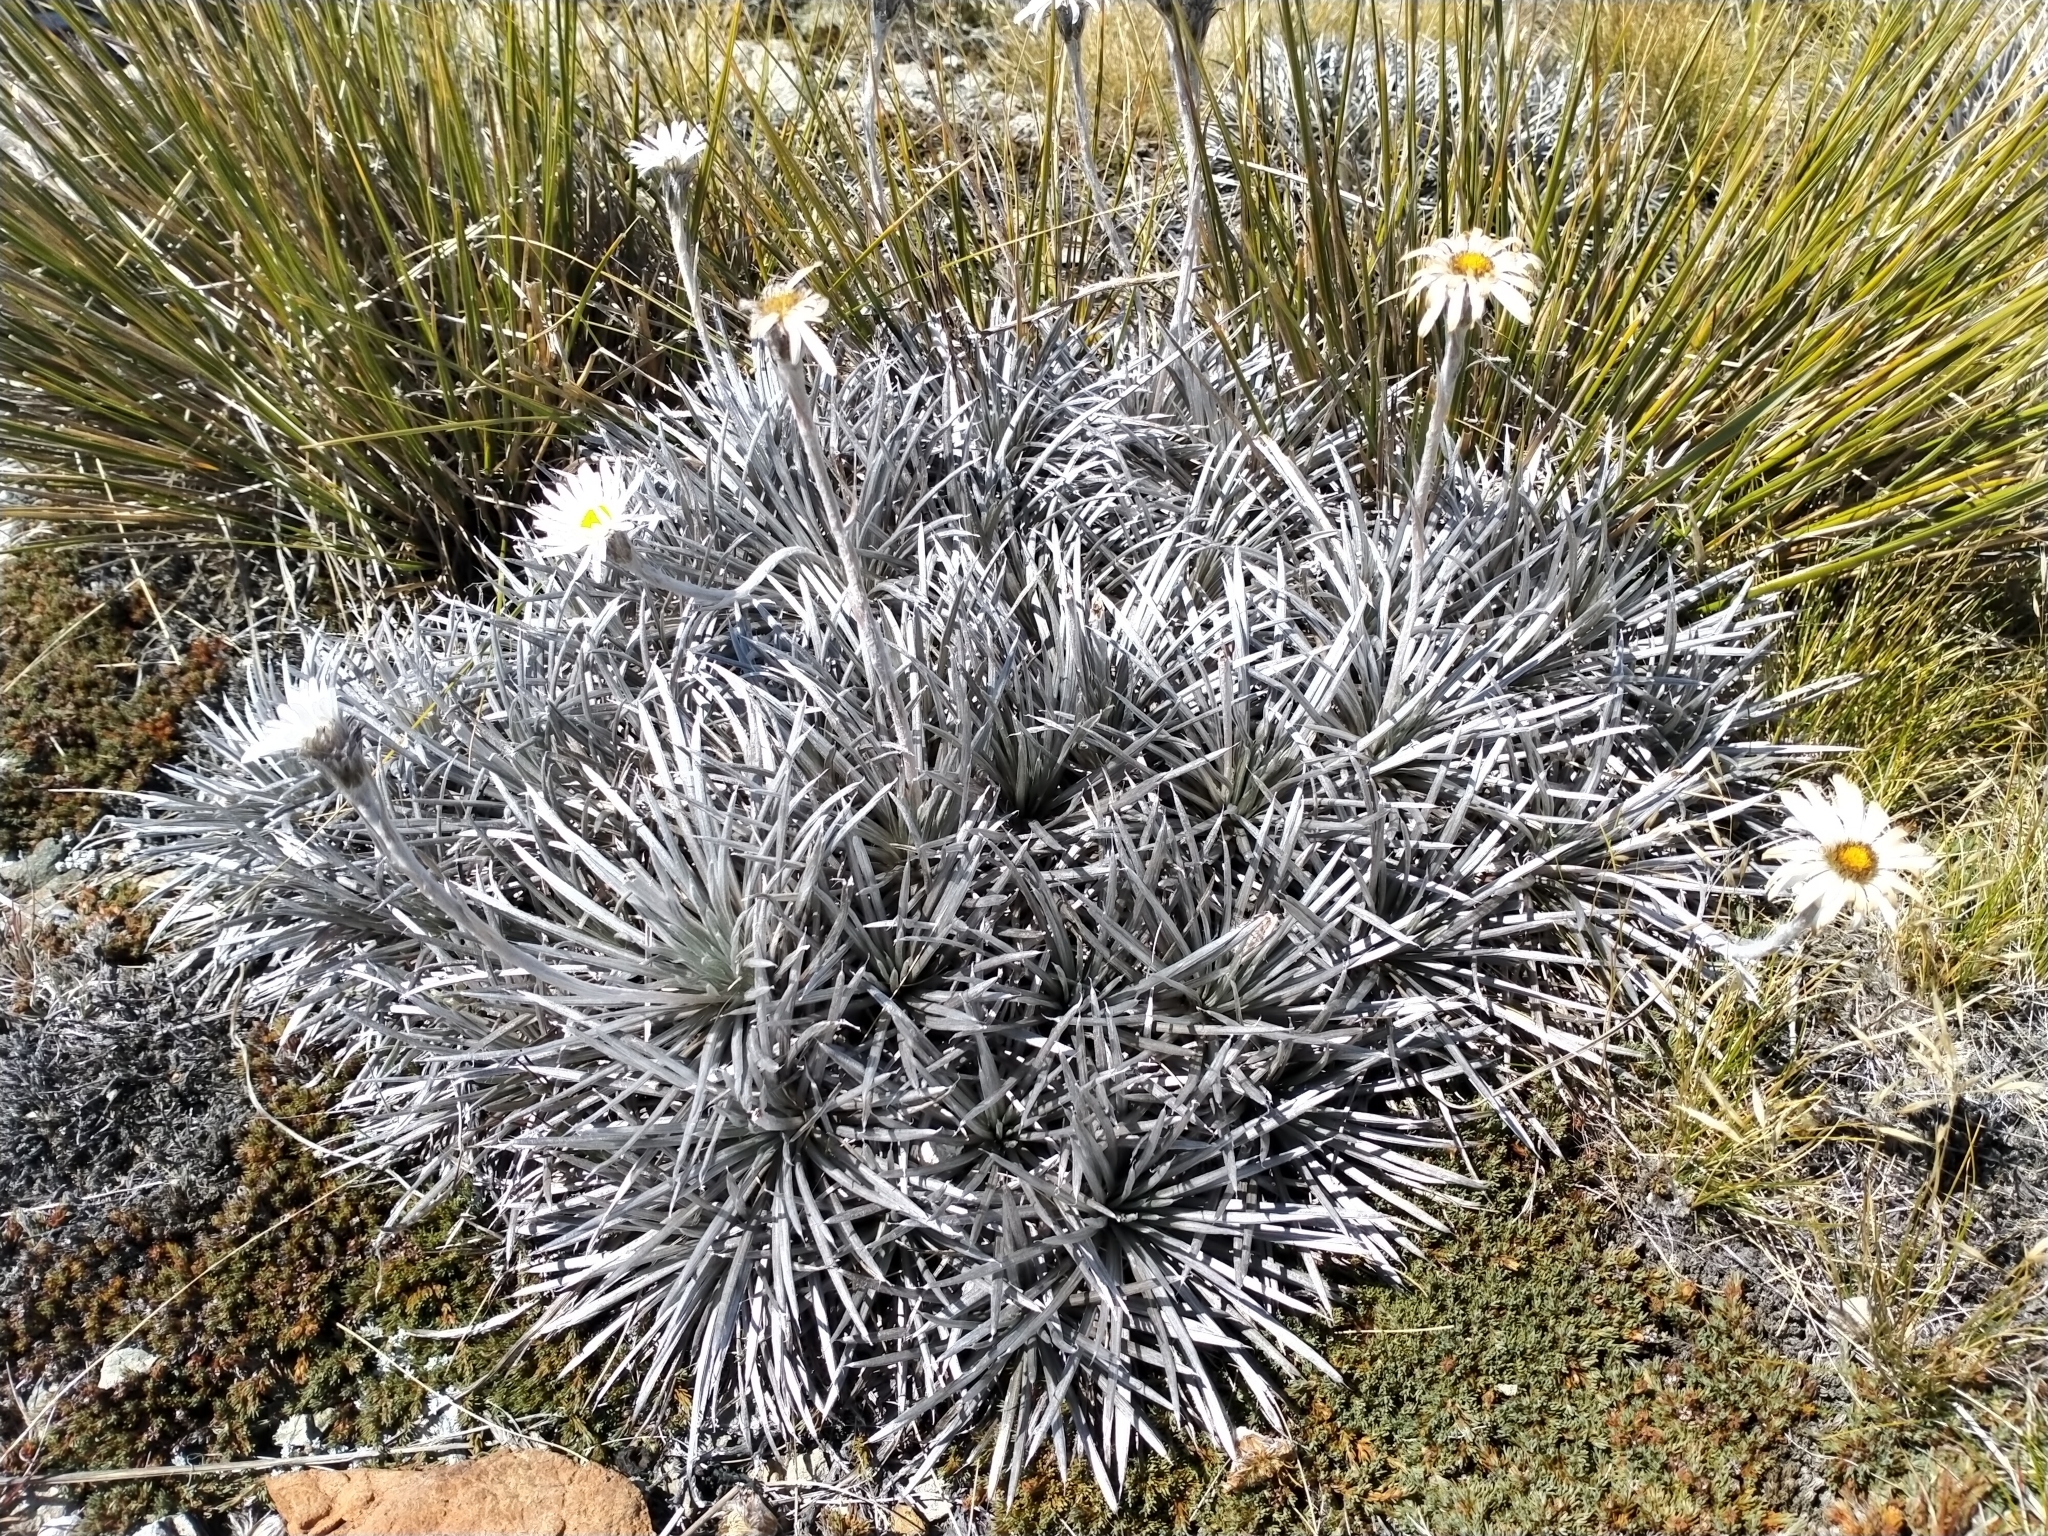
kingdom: Plantae
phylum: Tracheophyta
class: Magnoliopsida
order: Asterales
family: Asteraceae
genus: Celmisia
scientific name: Celmisia spedenii
